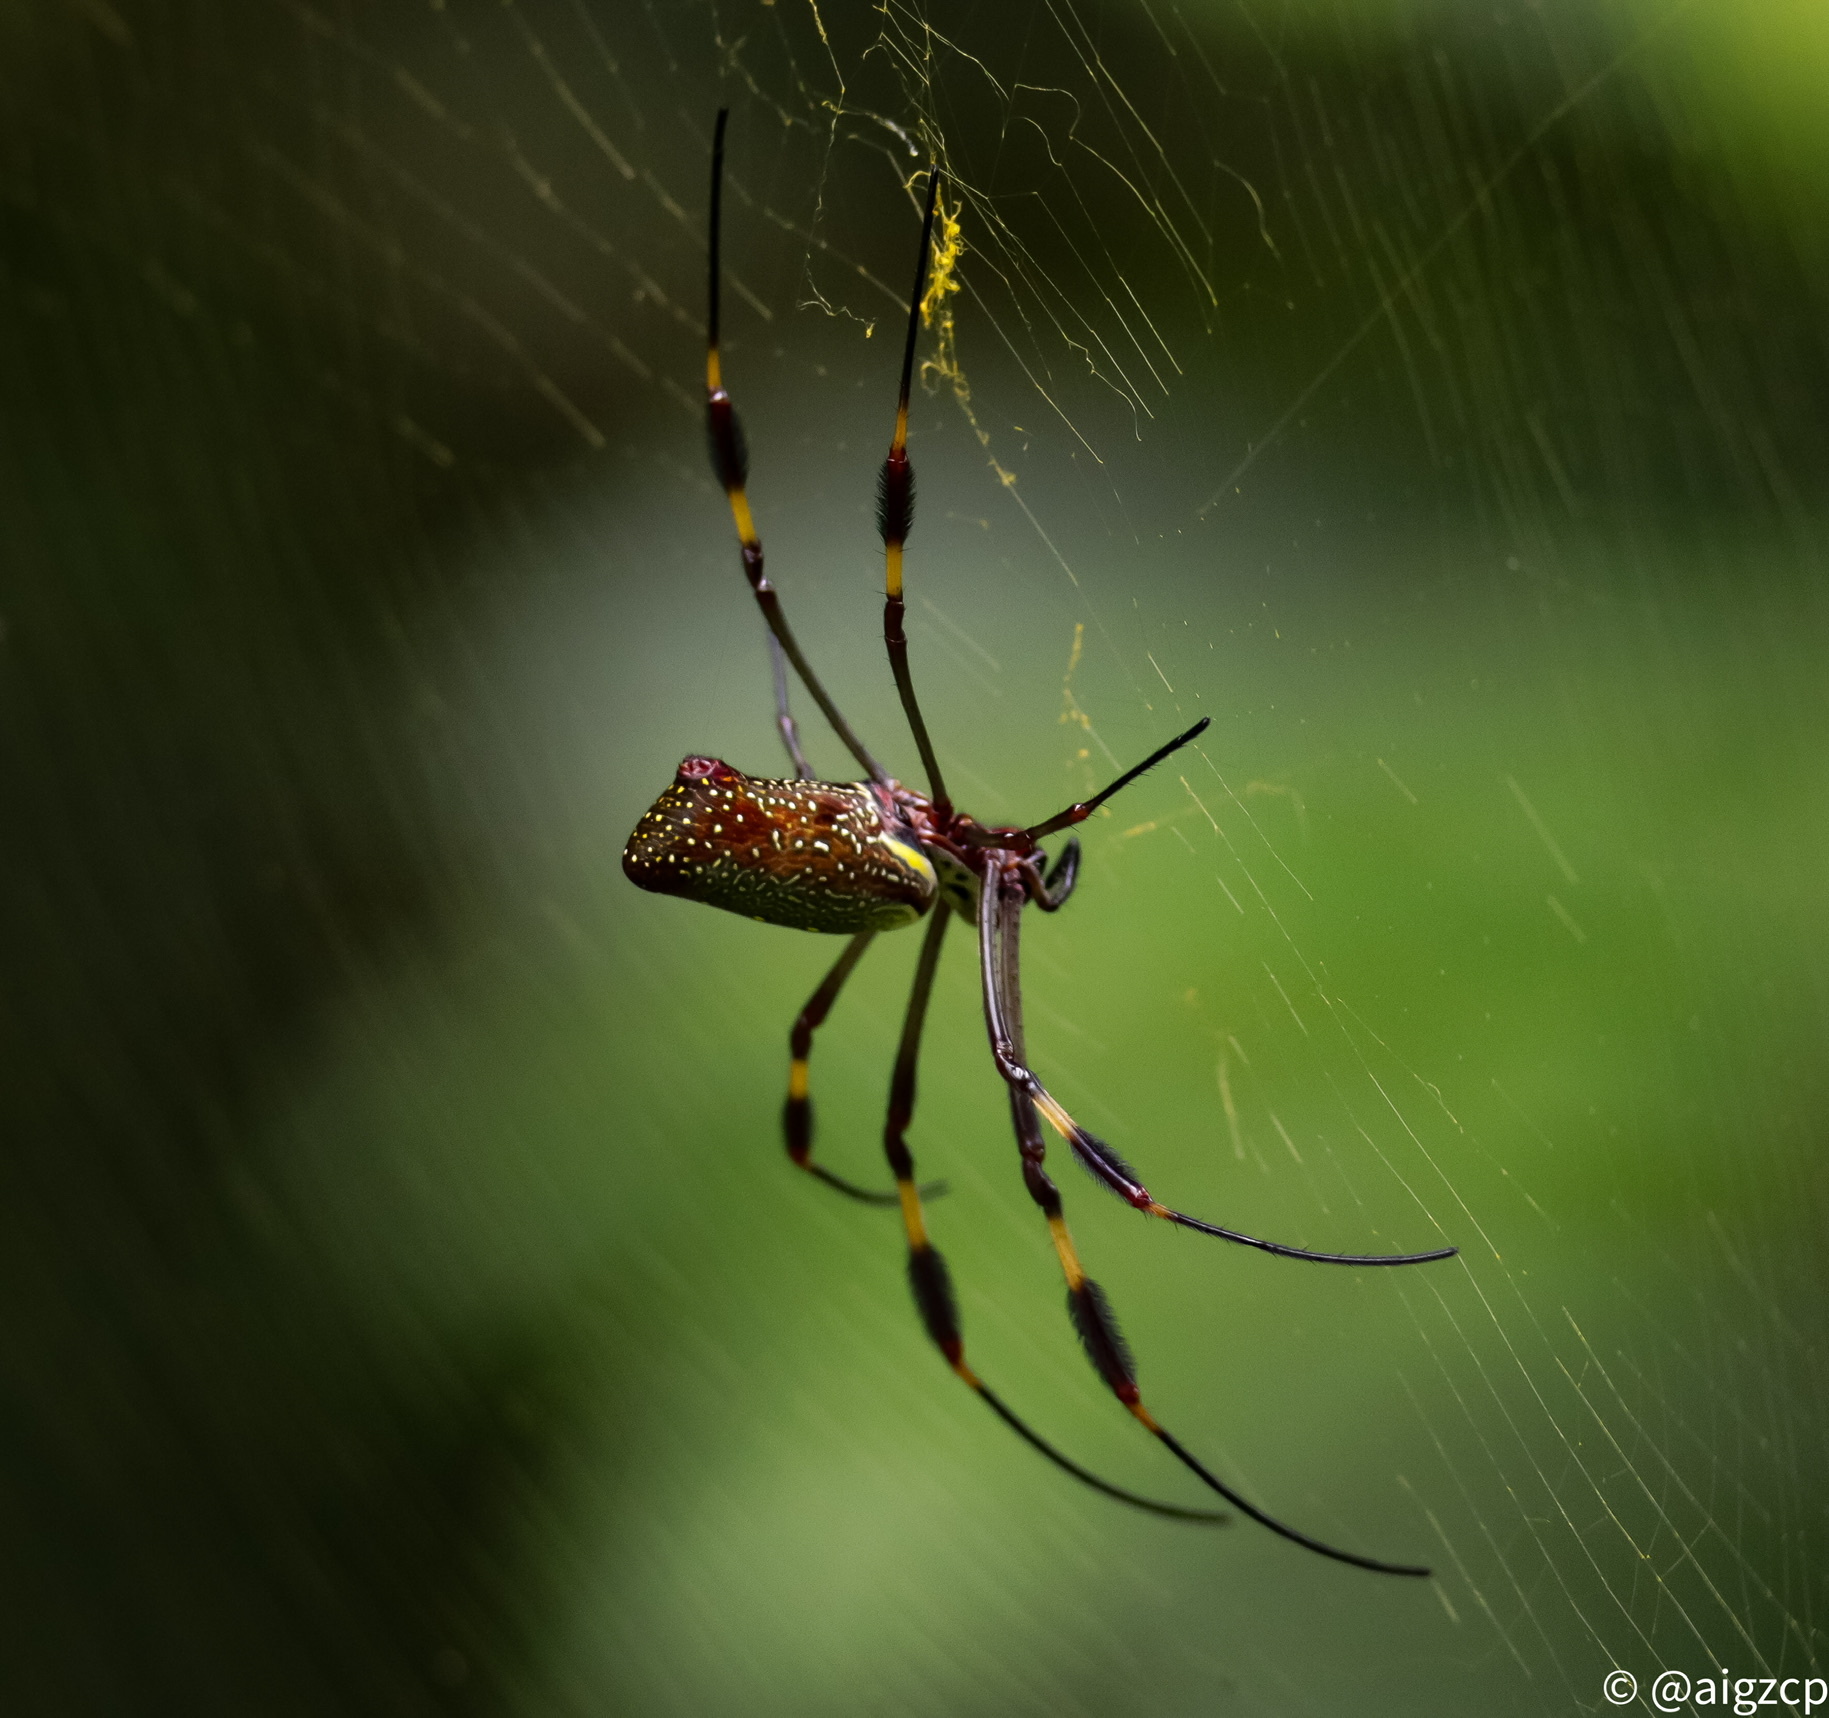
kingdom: Animalia
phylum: Arthropoda
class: Arachnida
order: Araneae
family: Araneidae
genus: Trichonephila
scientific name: Trichonephila clavipes
